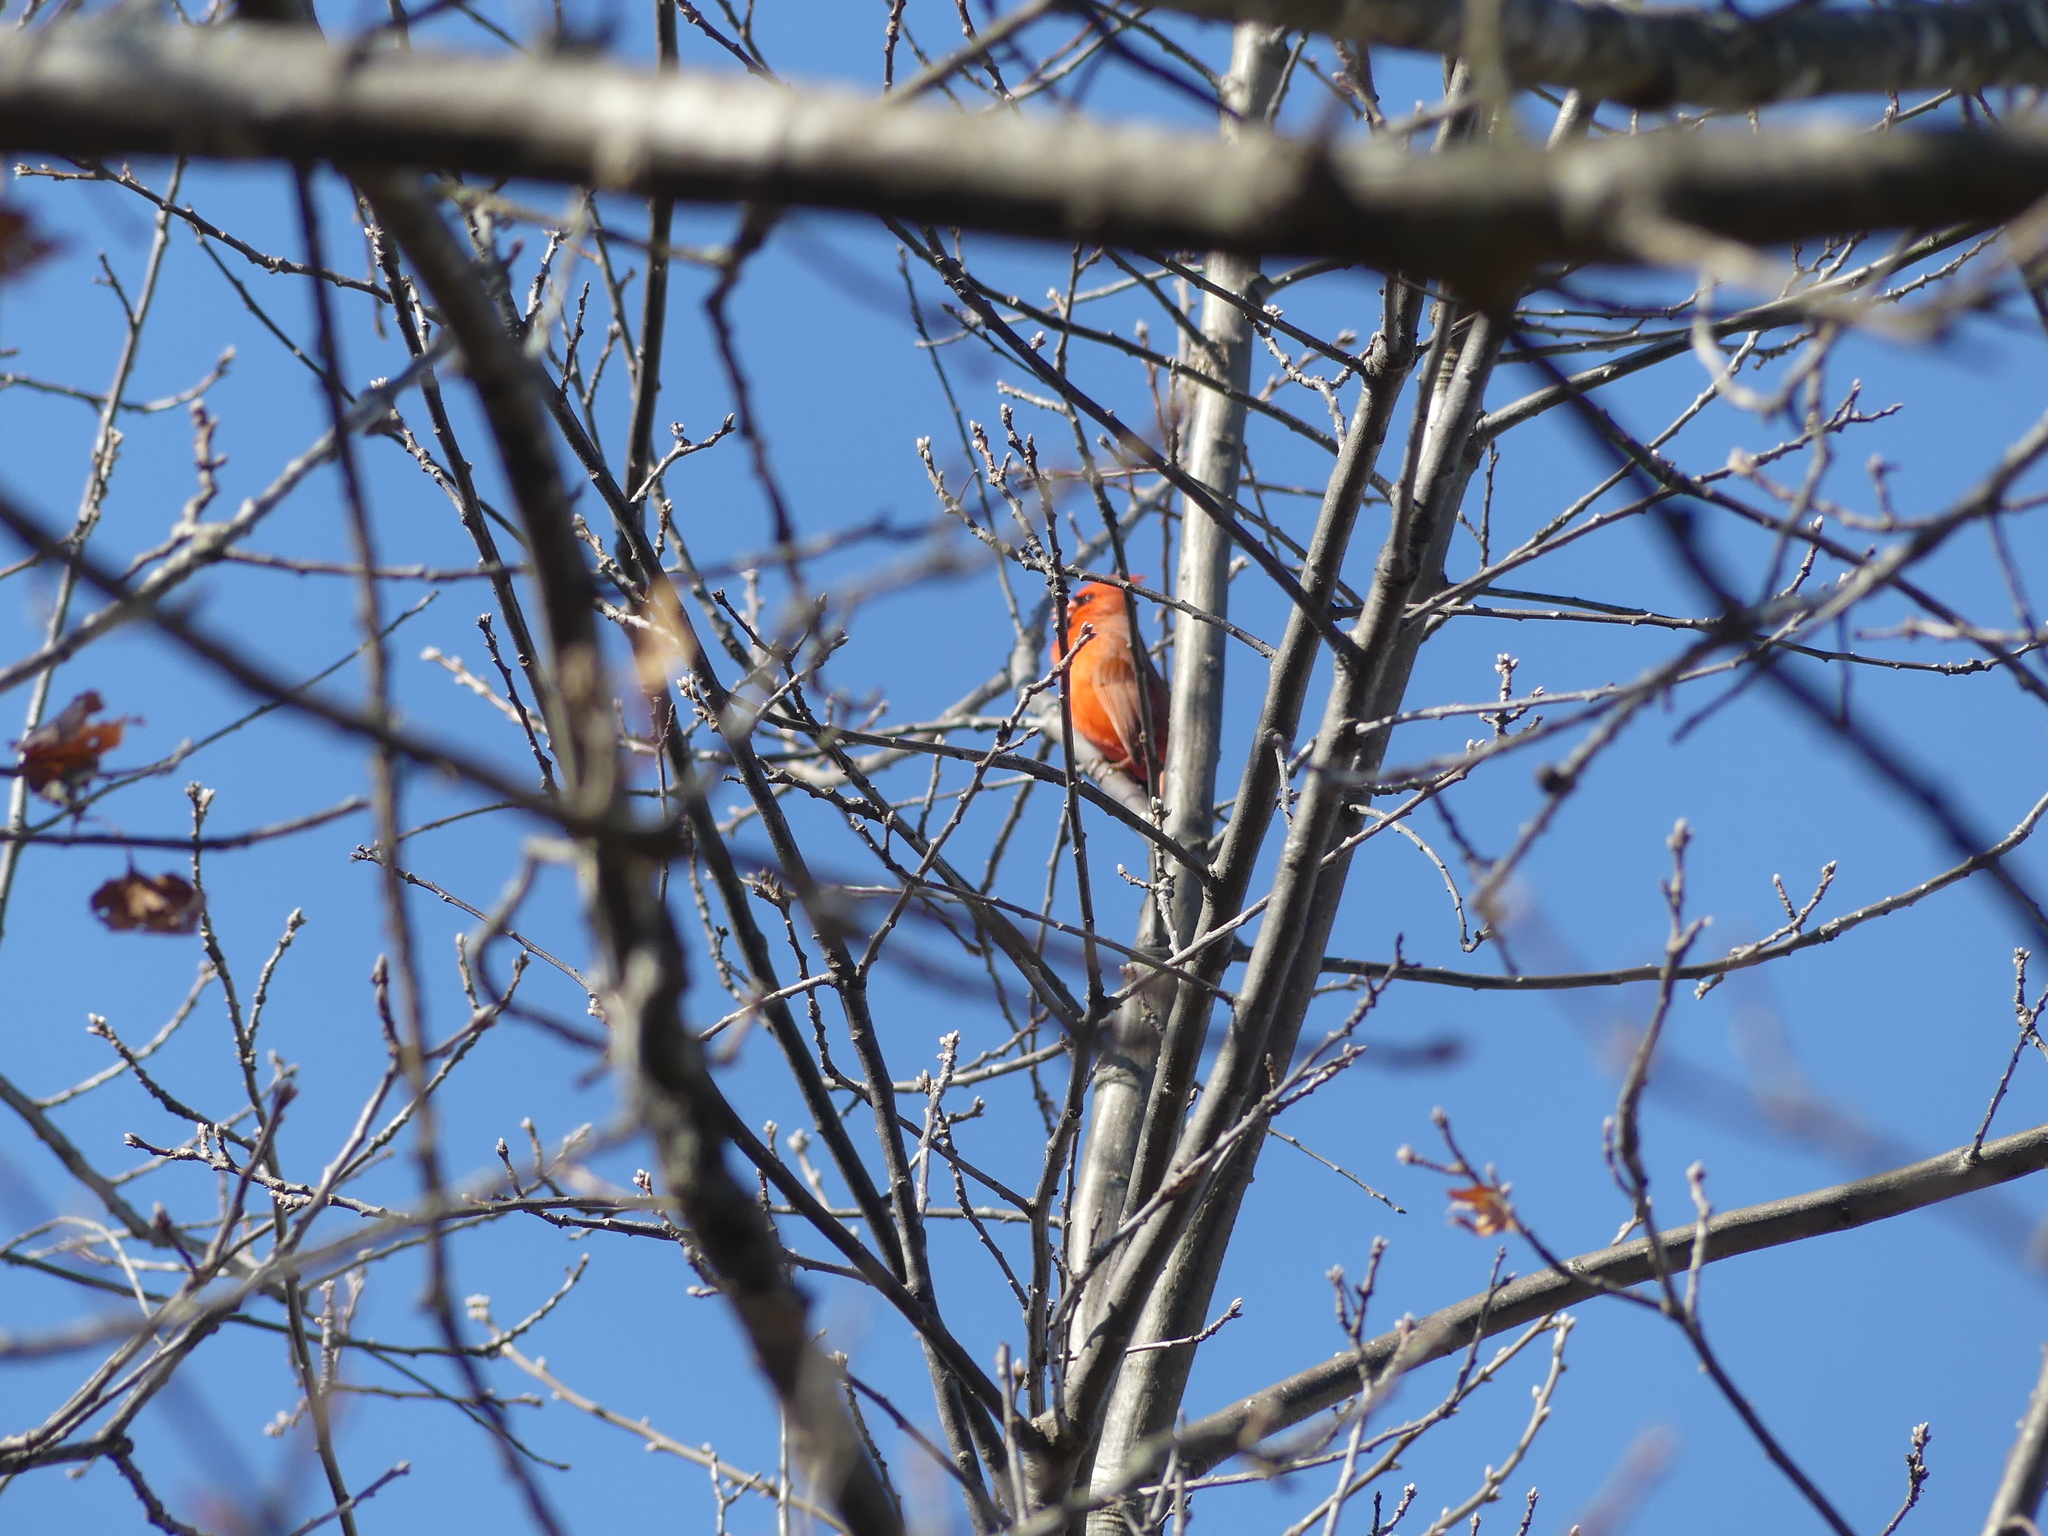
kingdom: Animalia
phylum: Chordata
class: Aves
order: Passeriformes
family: Cardinalidae
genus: Cardinalis
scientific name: Cardinalis cardinalis
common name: Northern cardinal
